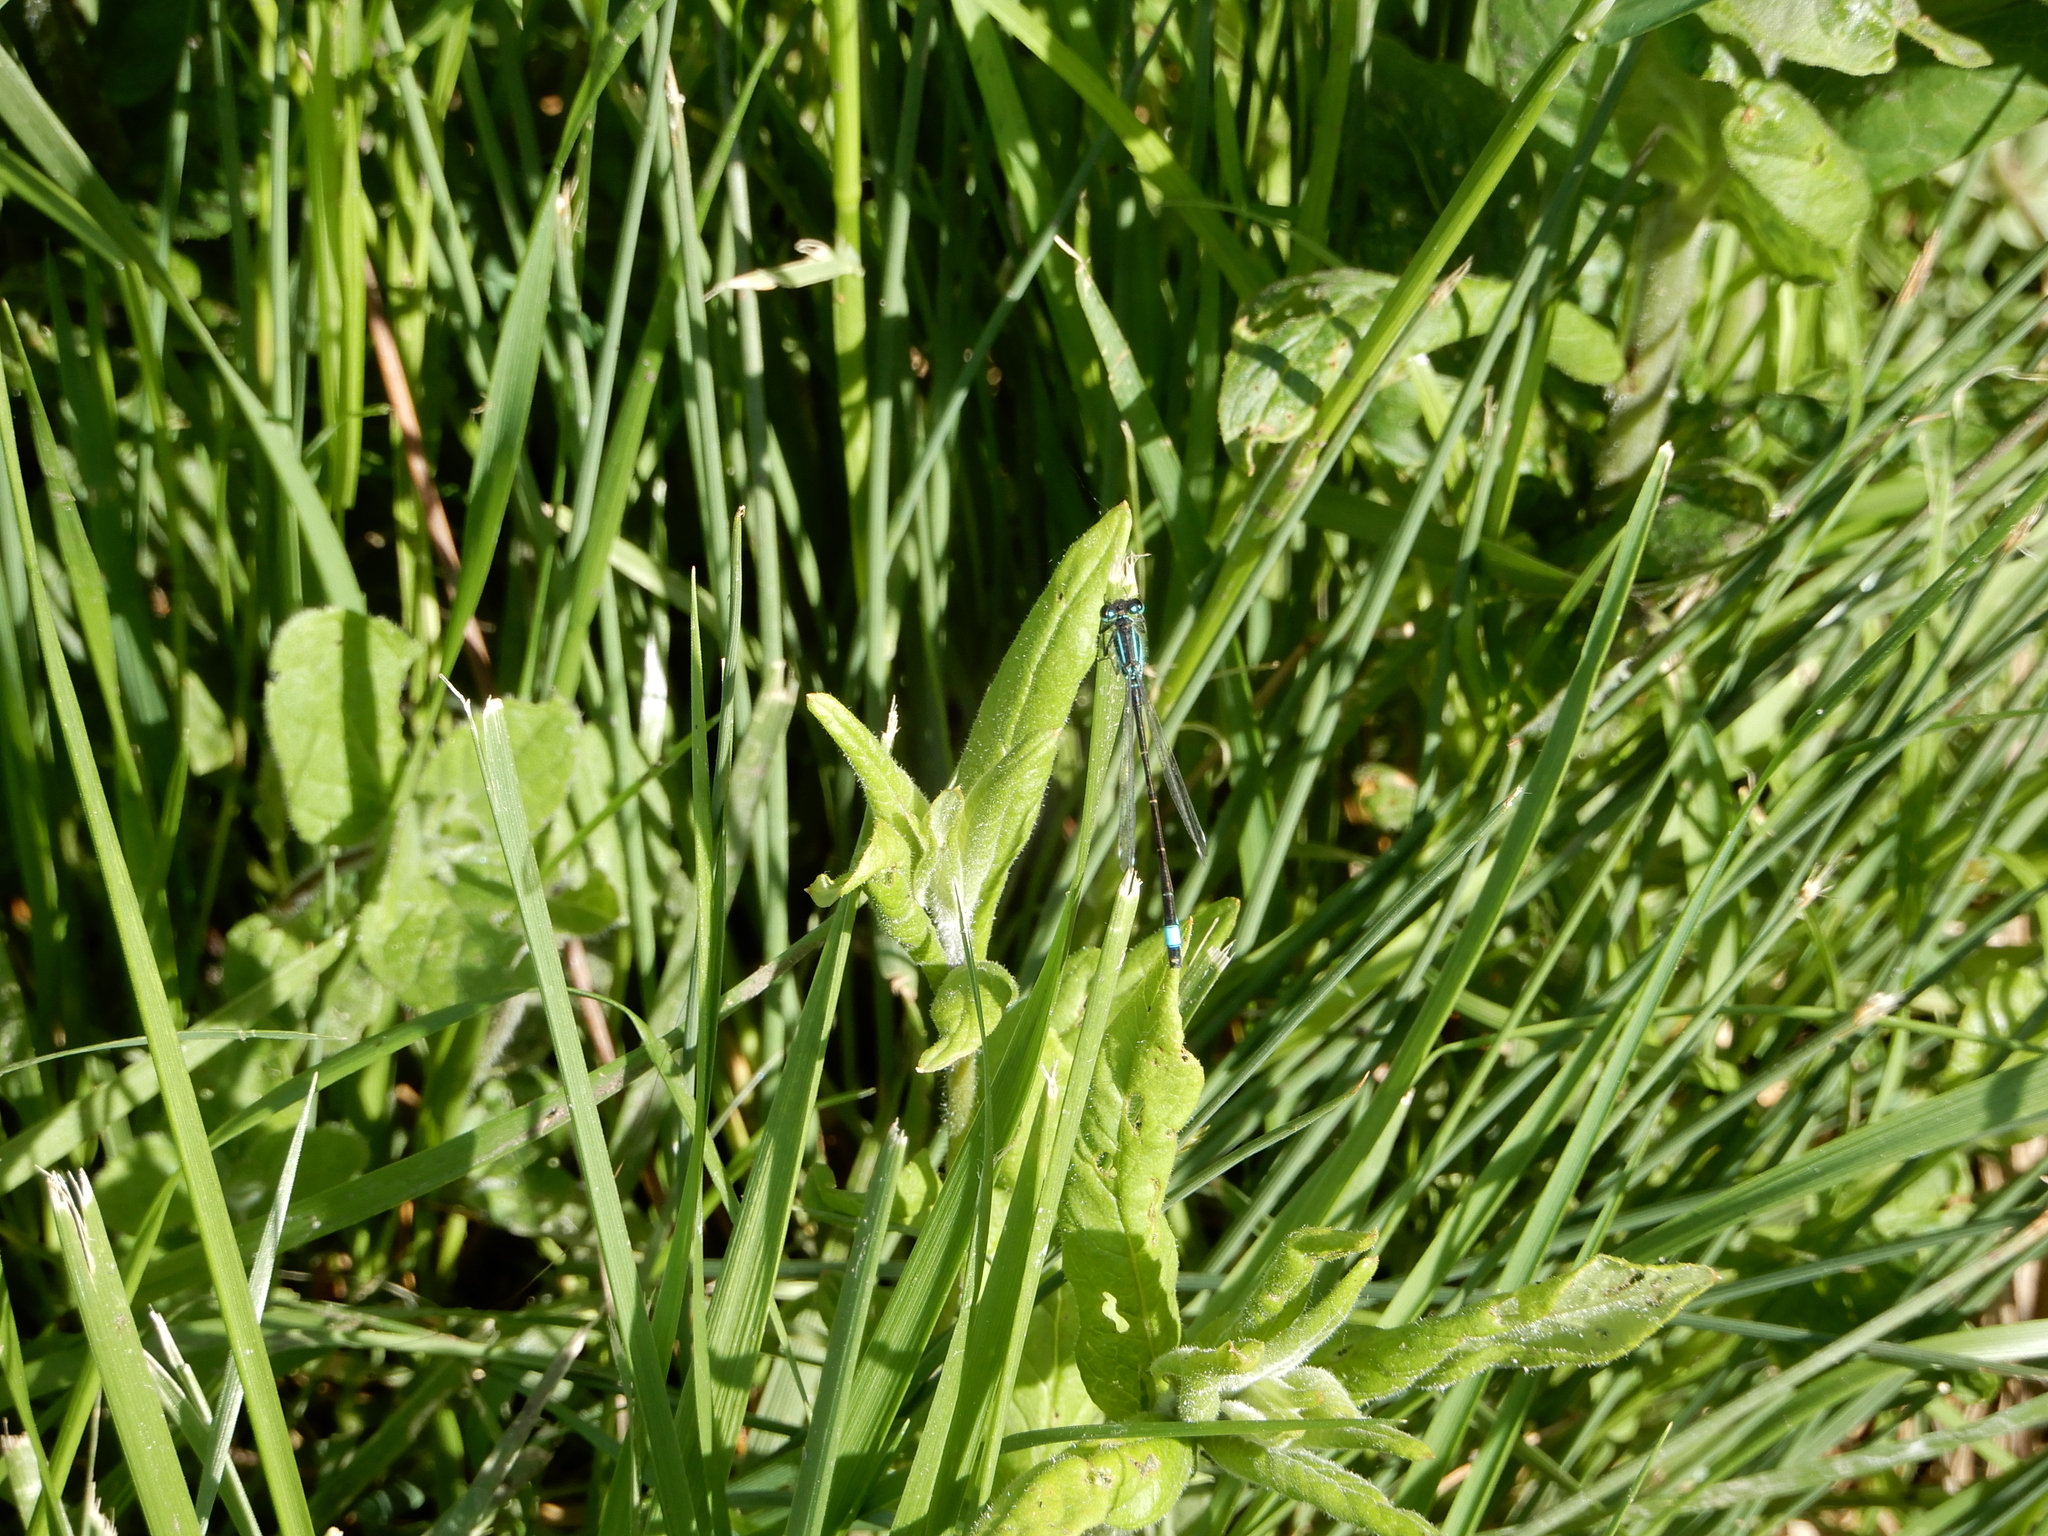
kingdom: Animalia
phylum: Arthropoda
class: Insecta
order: Odonata
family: Coenagrionidae
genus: Ischnura
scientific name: Ischnura elegans
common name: Blue-tailed damselfly
